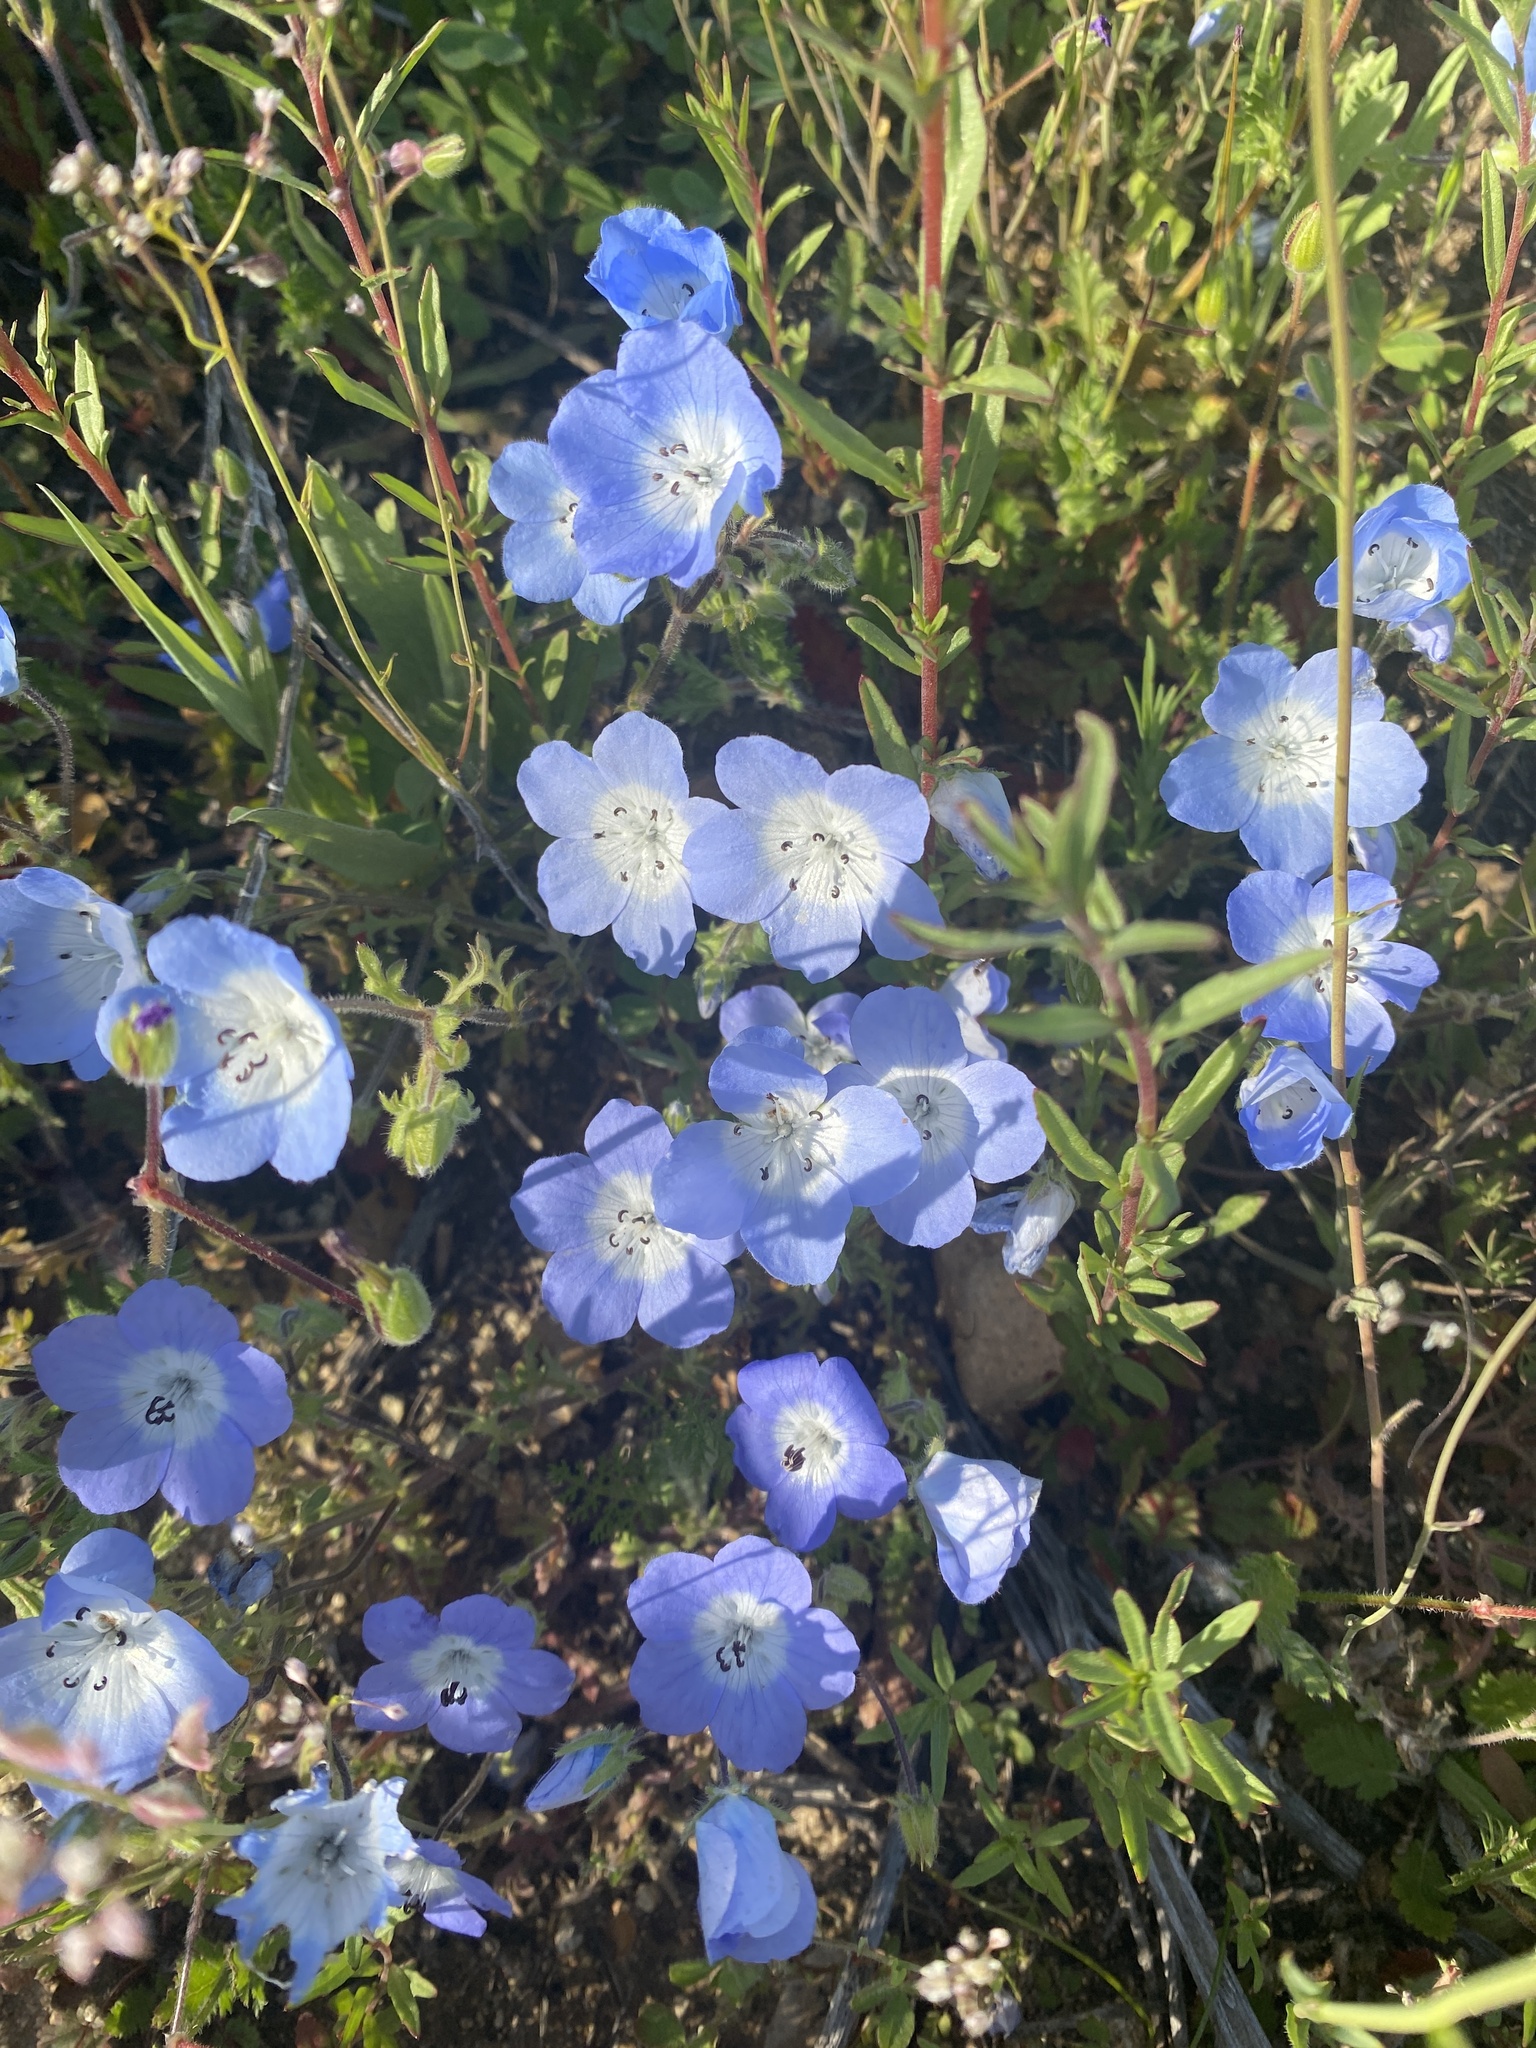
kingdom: Plantae
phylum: Tracheophyta
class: Magnoliopsida
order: Boraginales
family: Hydrophyllaceae
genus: Nemophila
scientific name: Nemophila menziesii
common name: Baby's-blue-eyes
